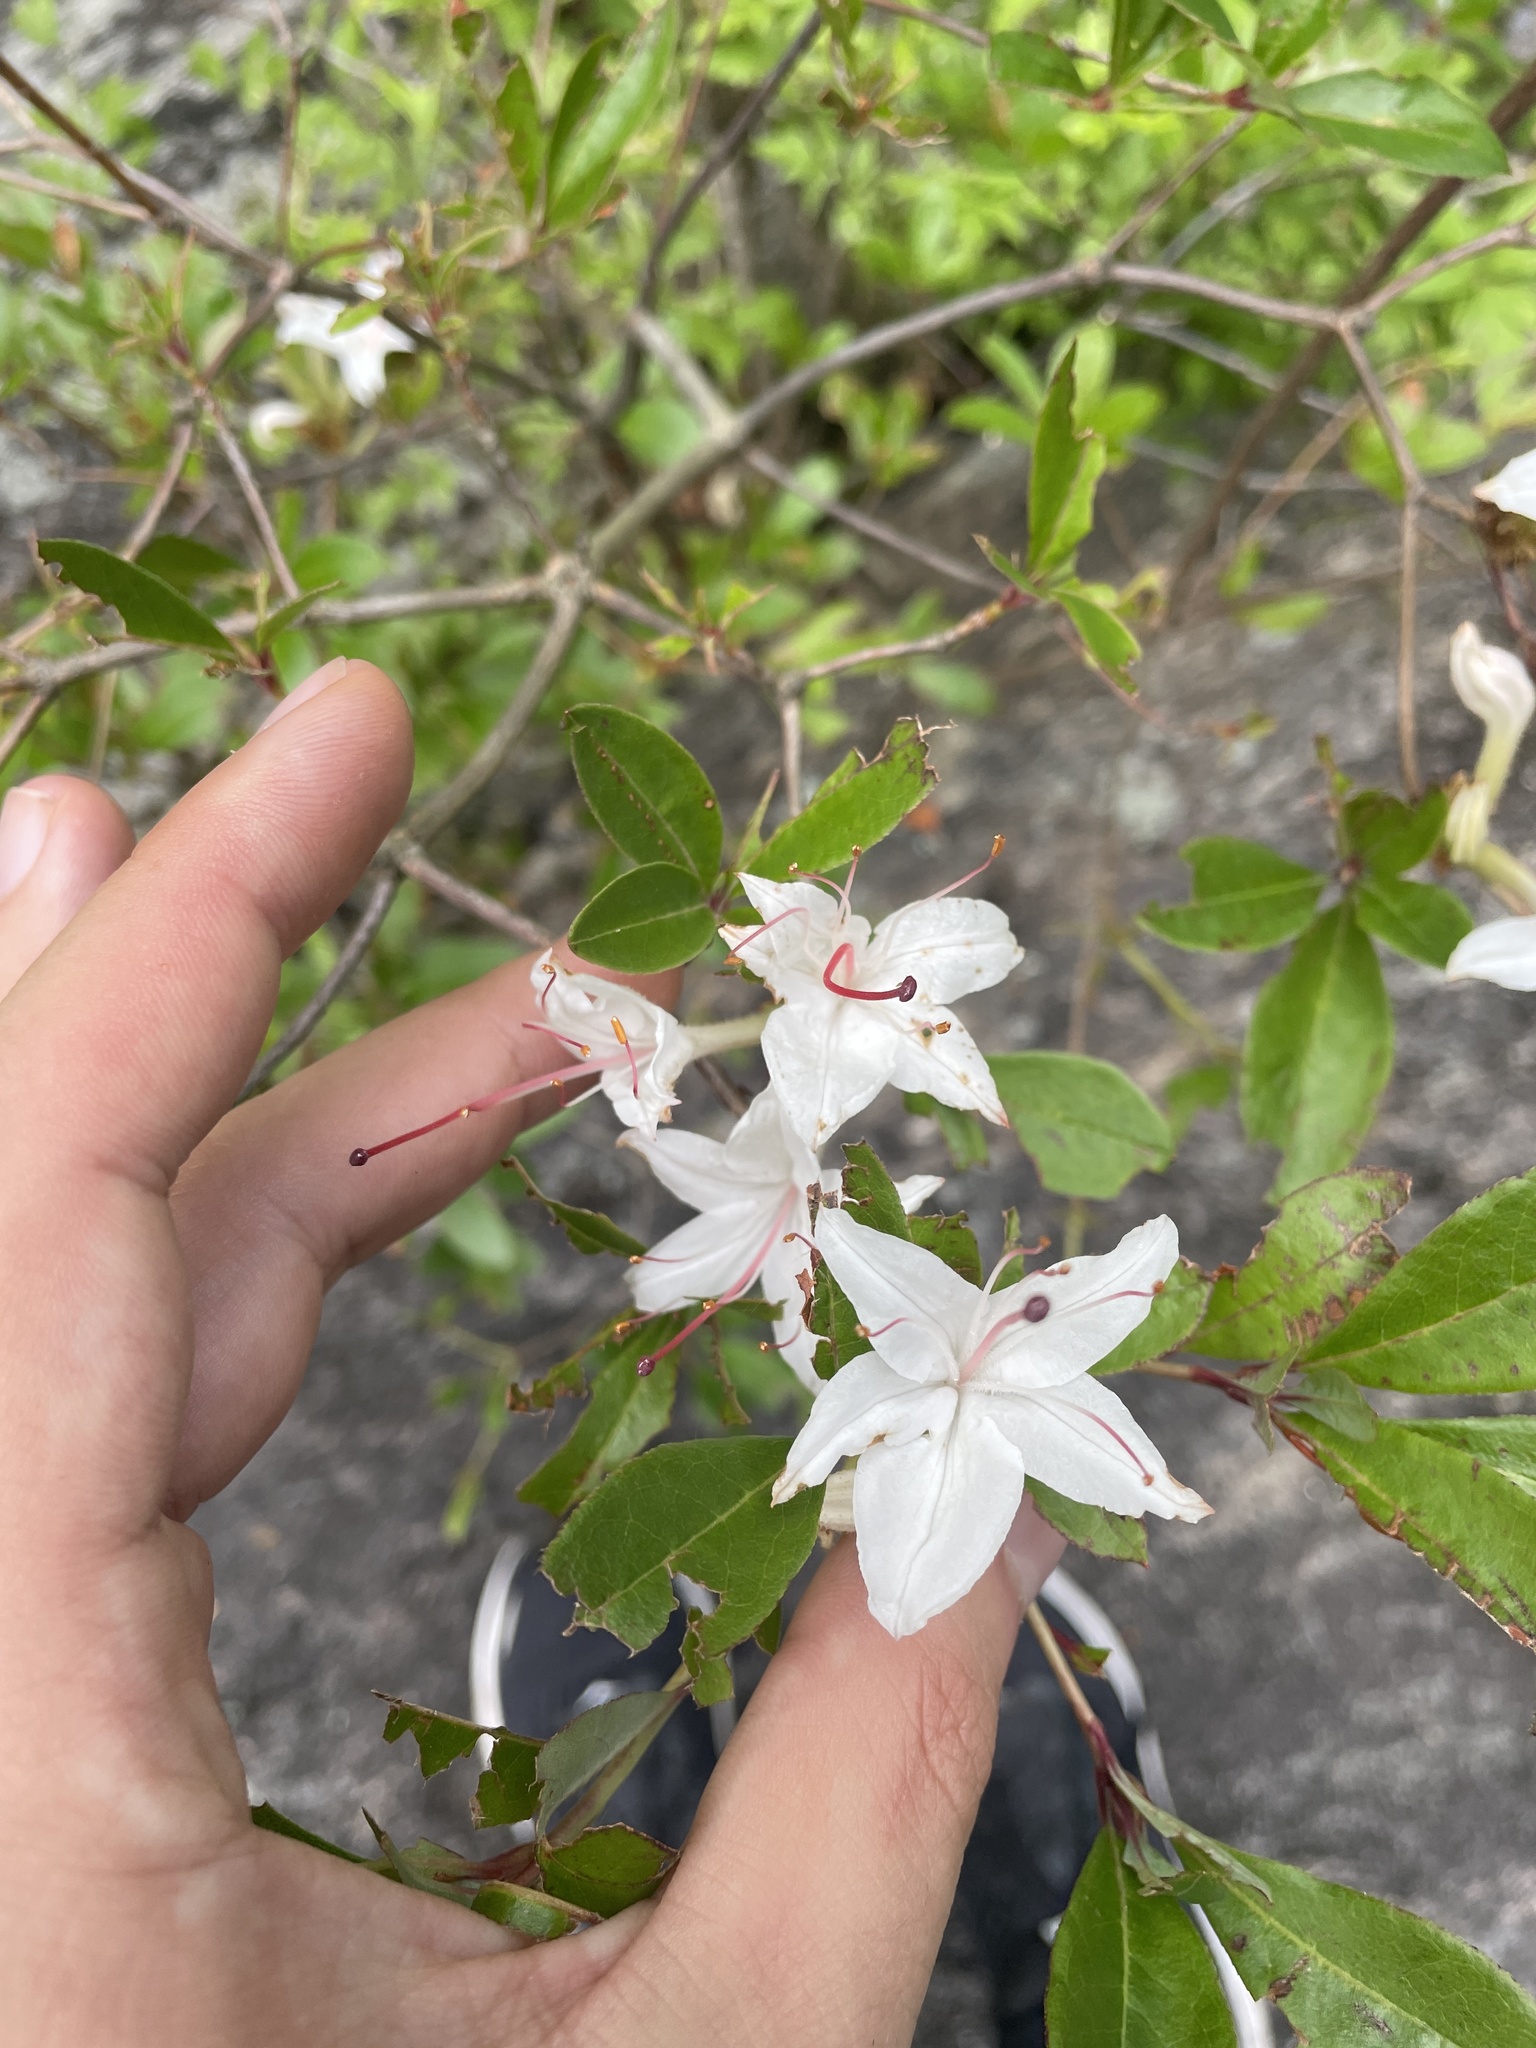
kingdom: Plantae
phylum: Tracheophyta
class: Magnoliopsida
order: Ericales
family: Ericaceae
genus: Rhododendron
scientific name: Rhododendron viscosum
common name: Clammy azalea
